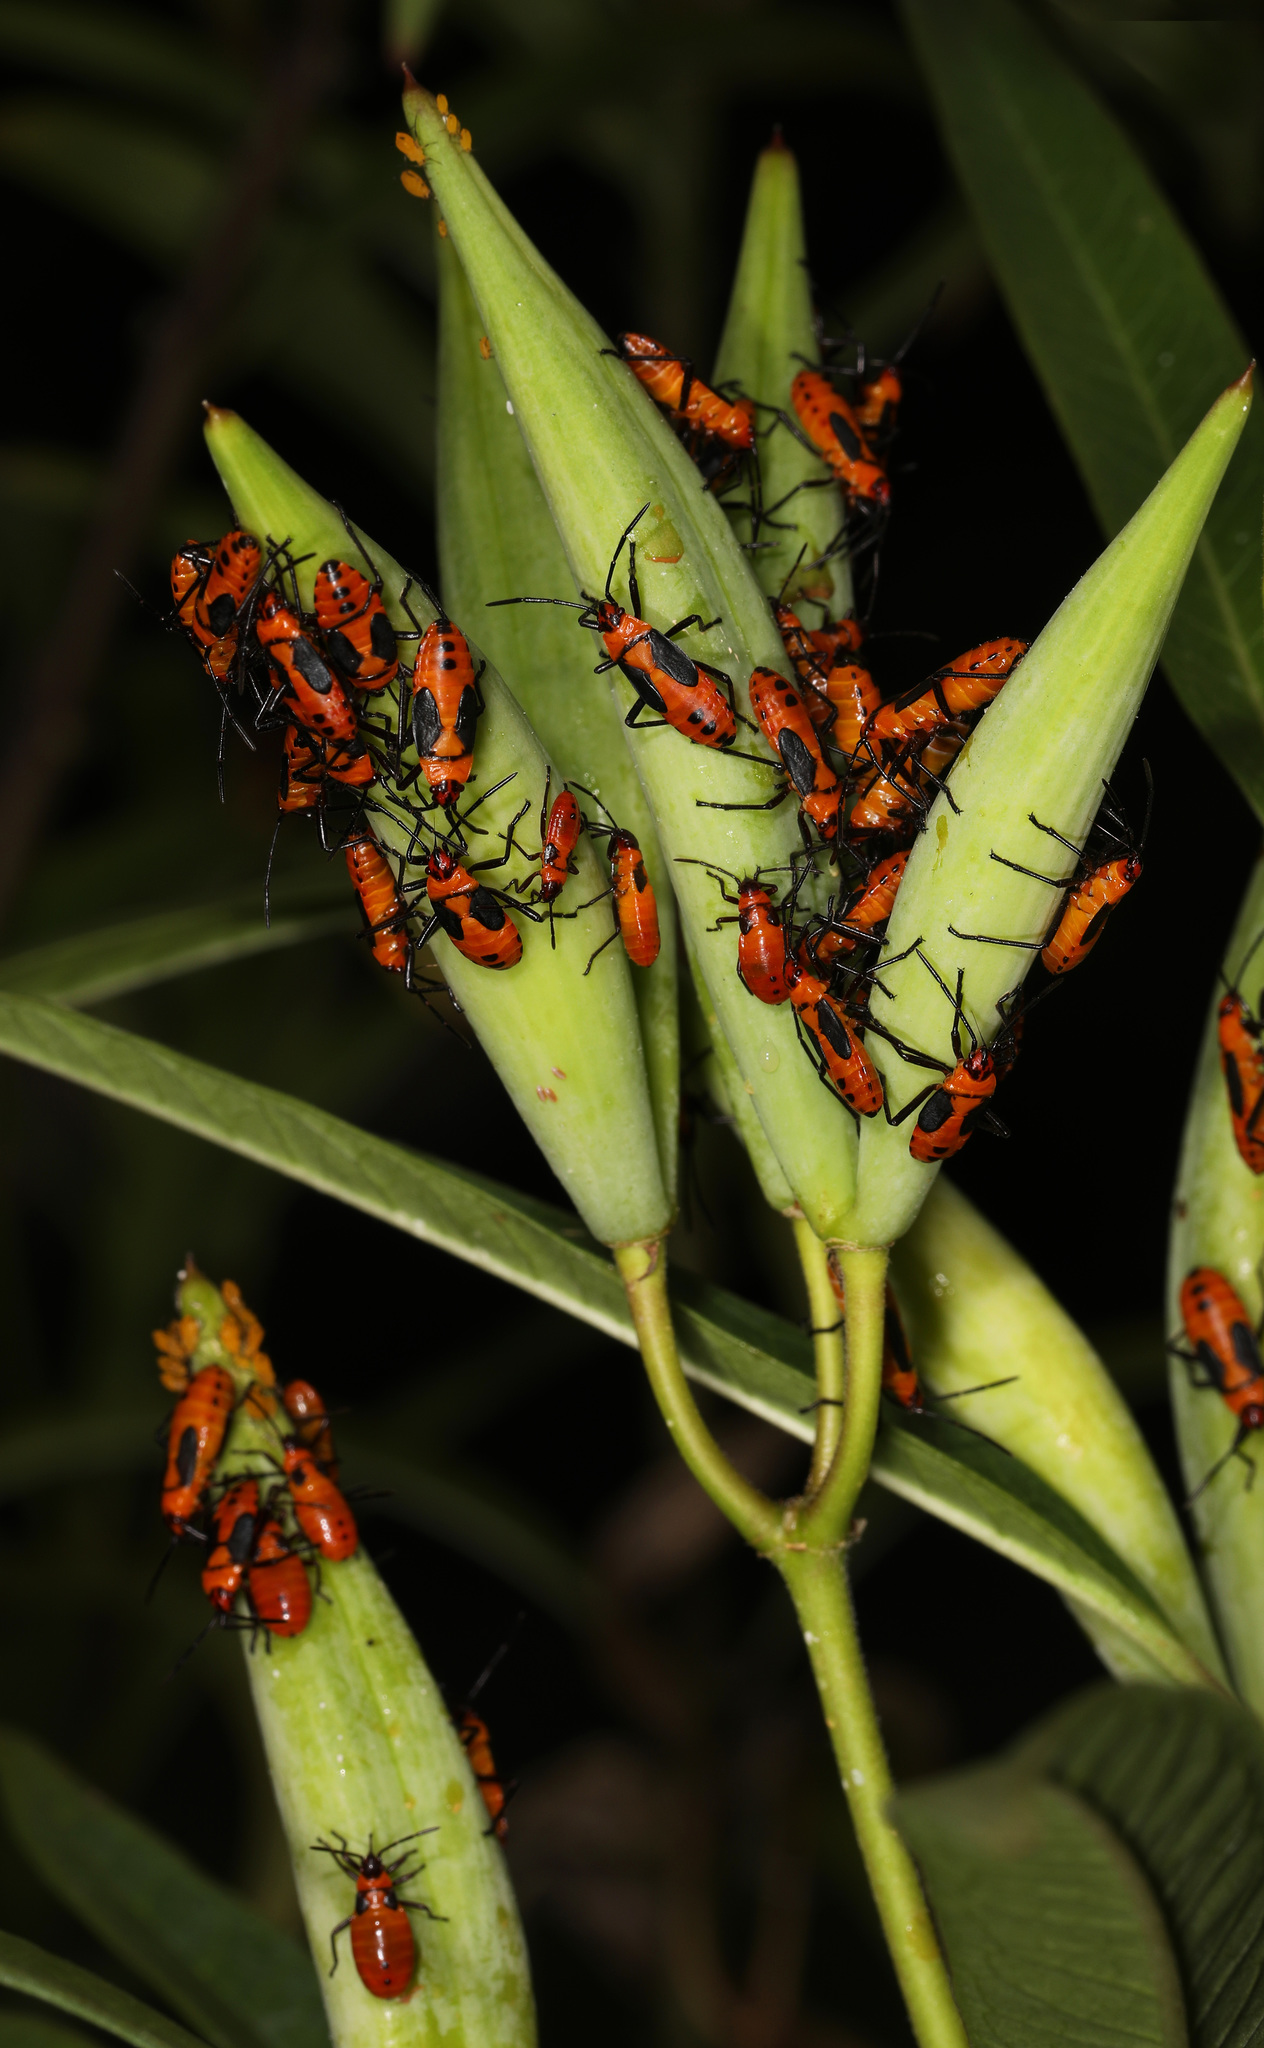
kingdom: Animalia
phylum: Arthropoda
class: Insecta
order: Hemiptera
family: Lygaeidae
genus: Oncopeltus
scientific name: Oncopeltus fasciatus
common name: Large milkweed bug
